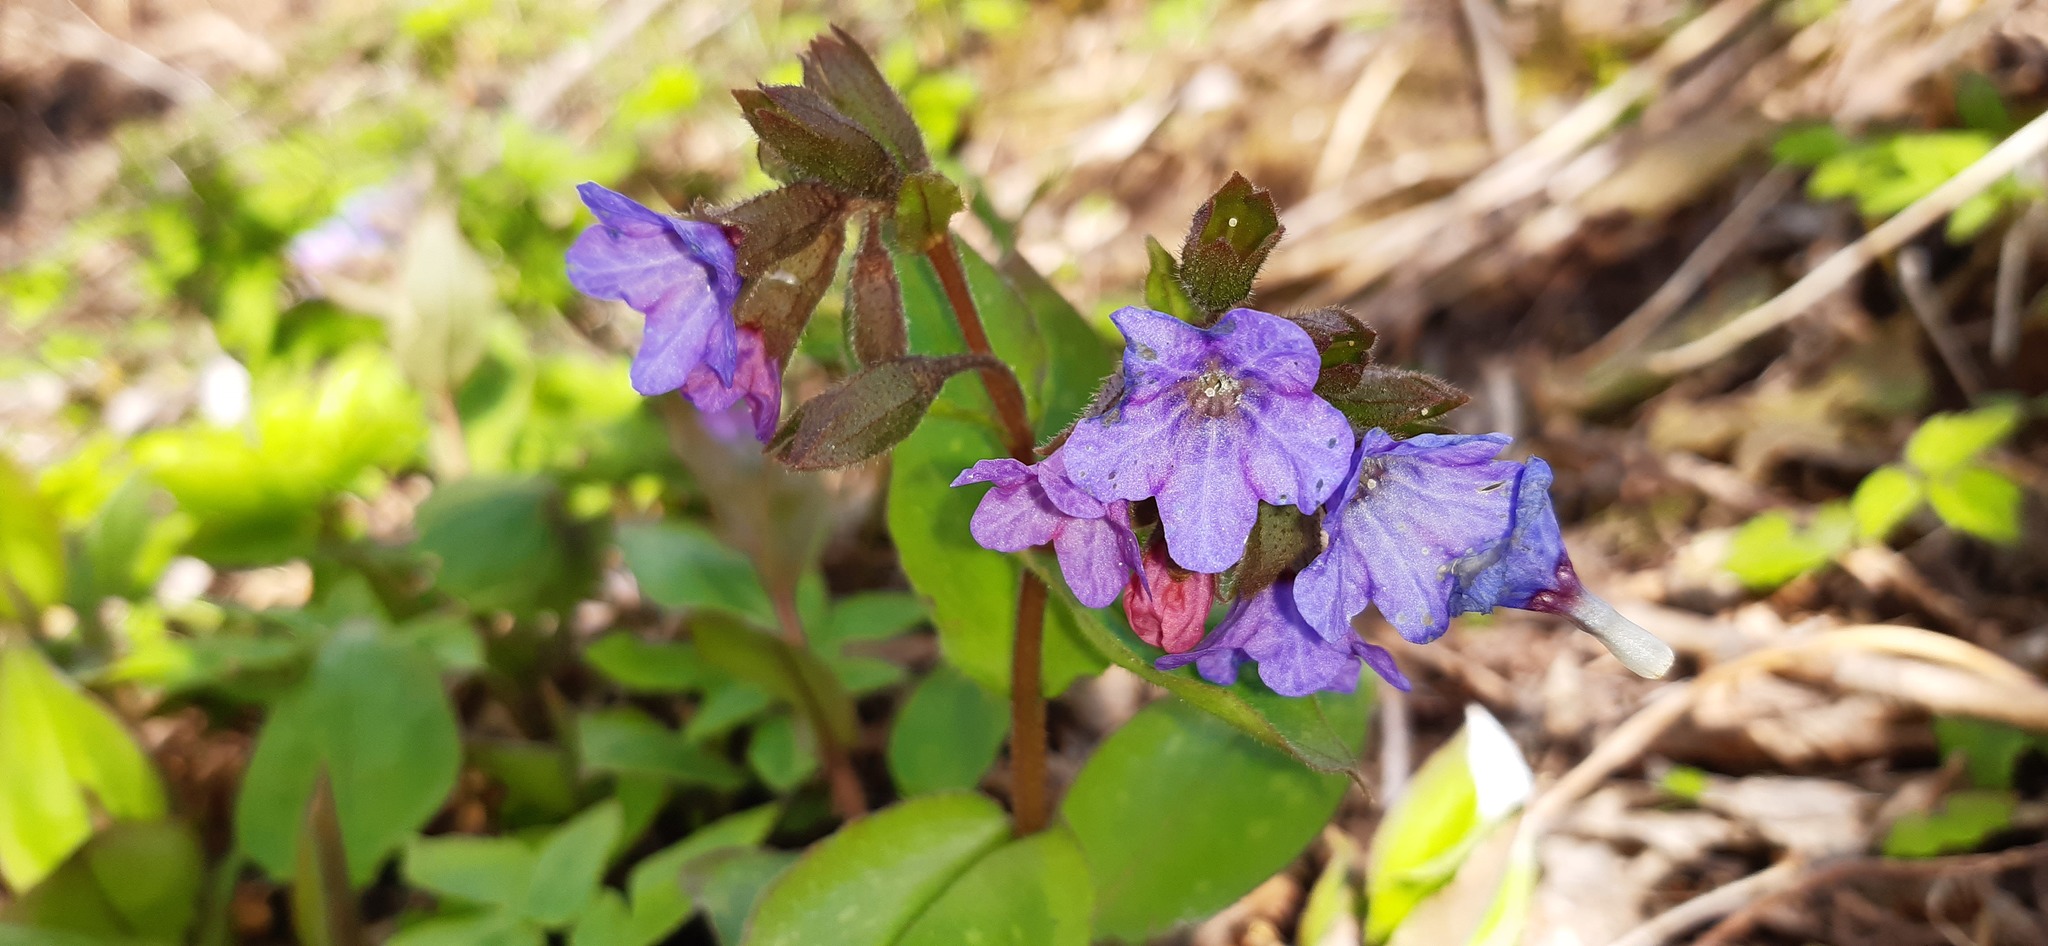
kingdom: Plantae
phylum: Tracheophyta
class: Magnoliopsida
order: Boraginales
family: Boraginaceae
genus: Pulmonaria
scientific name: Pulmonaria obscura
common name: Suffolk lungwort
